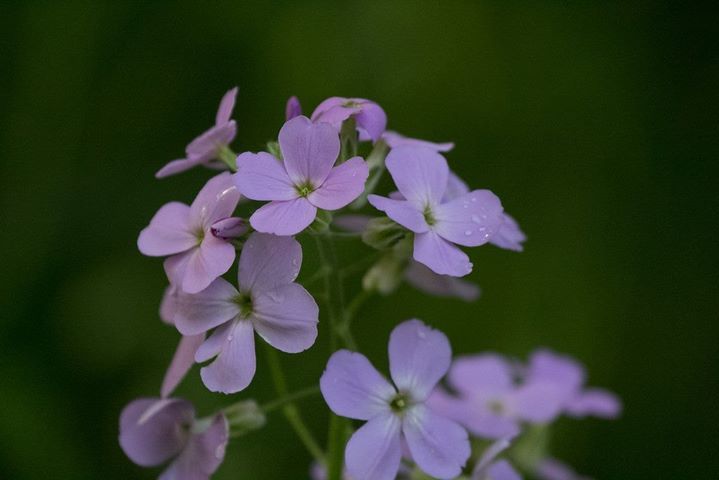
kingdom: Plantae
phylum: Tracheophyta
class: Magnoliopsida
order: Brassicales
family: Brassicaceae
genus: Hesperis
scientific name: Hesperis matronalis
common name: Dame's-violet
